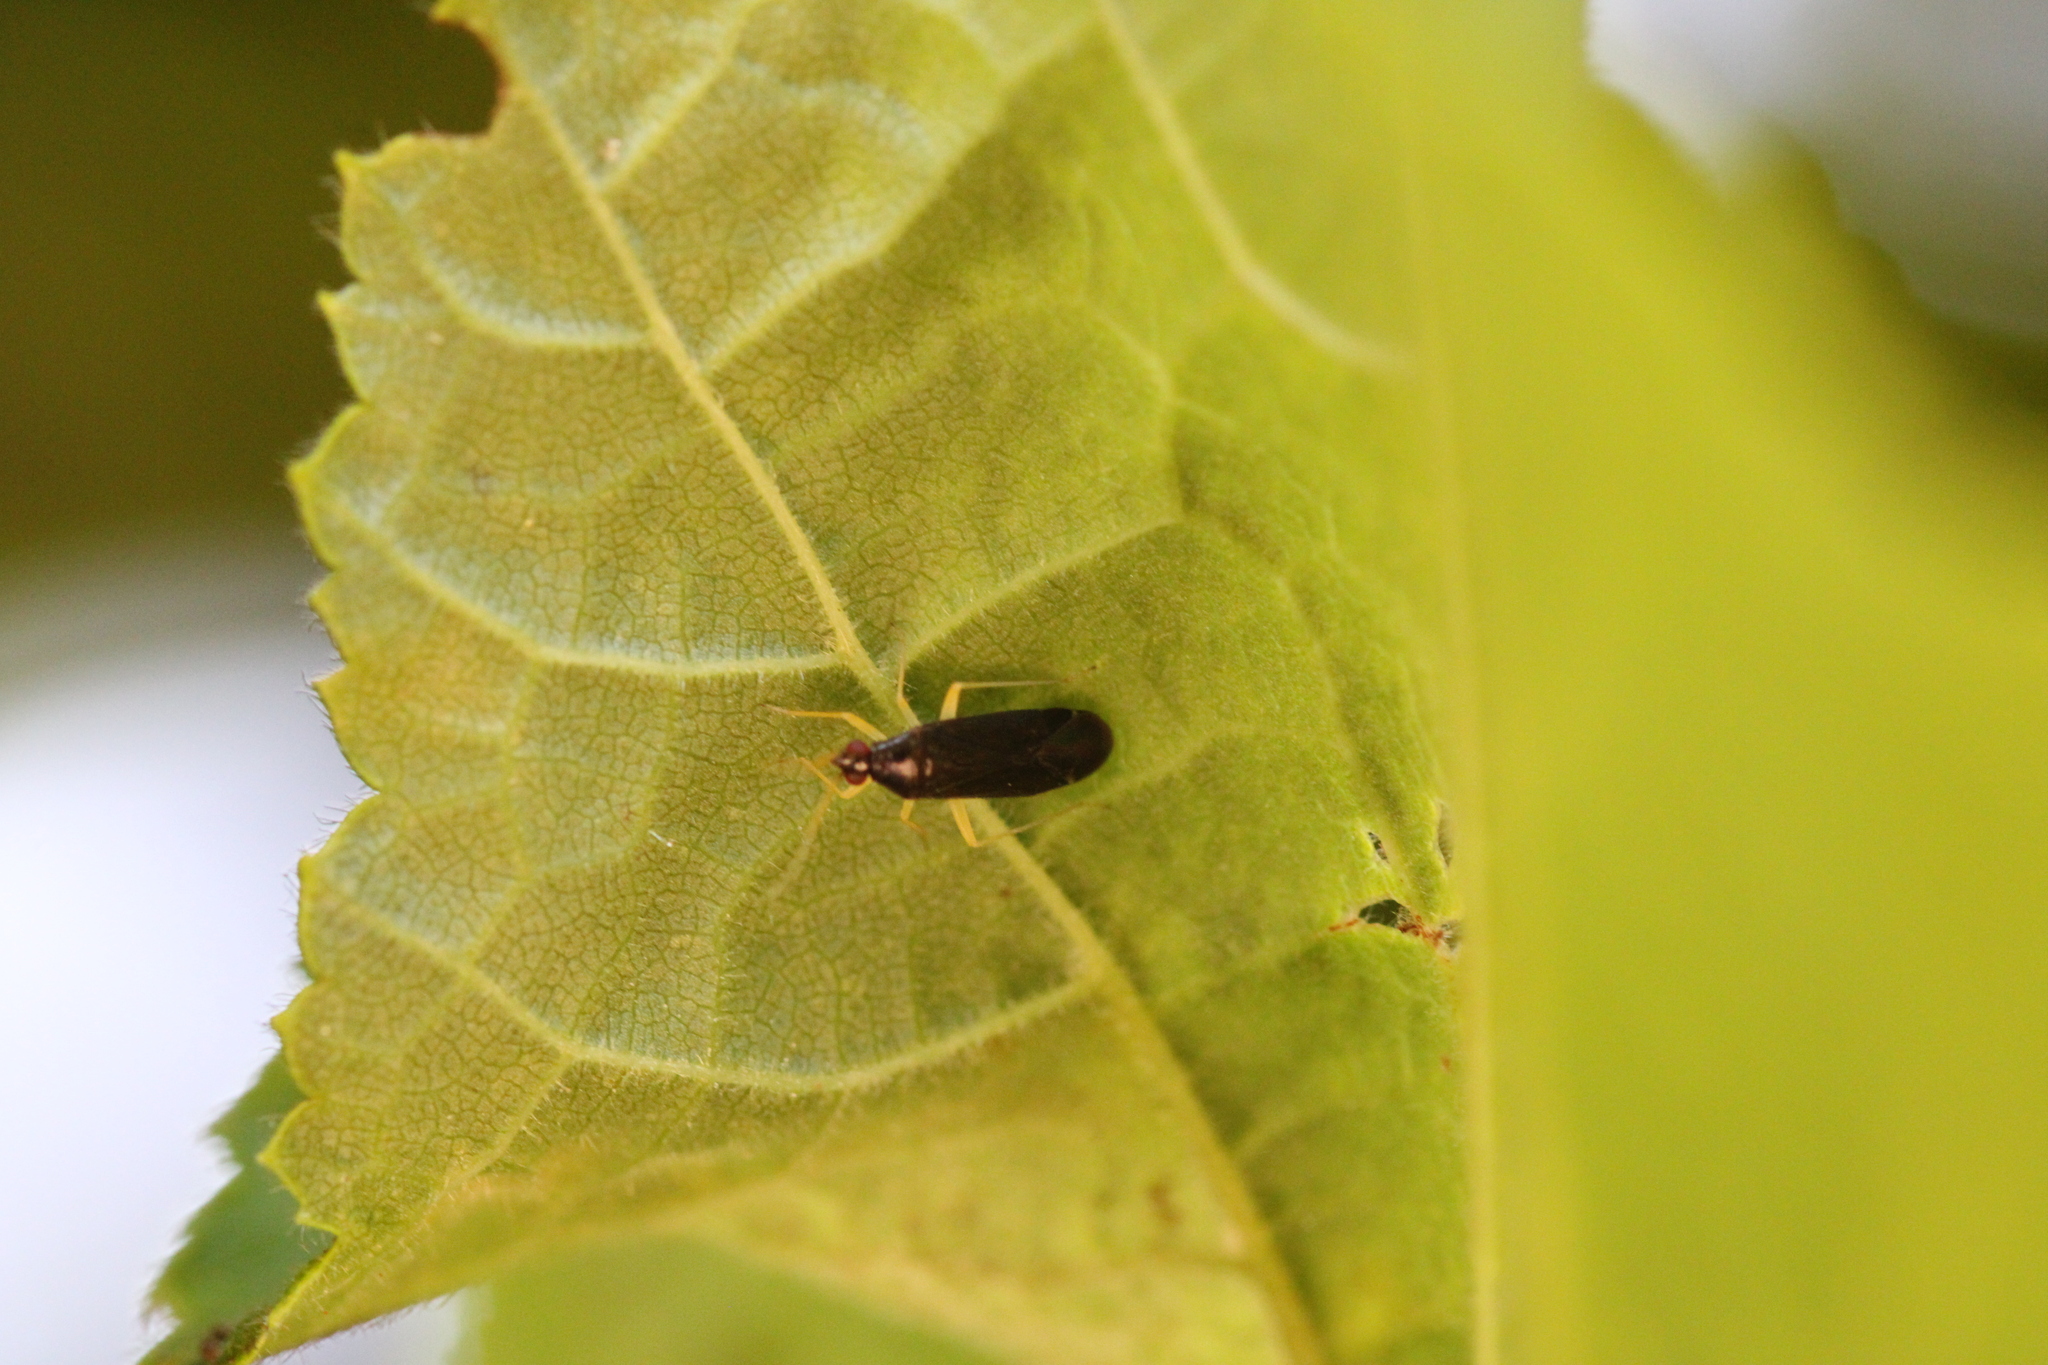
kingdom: Animalia
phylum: Arthropoda
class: Insecta
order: Hemiptera
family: Miridae
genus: Phylus
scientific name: Phylus coryli
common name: Plant bug
